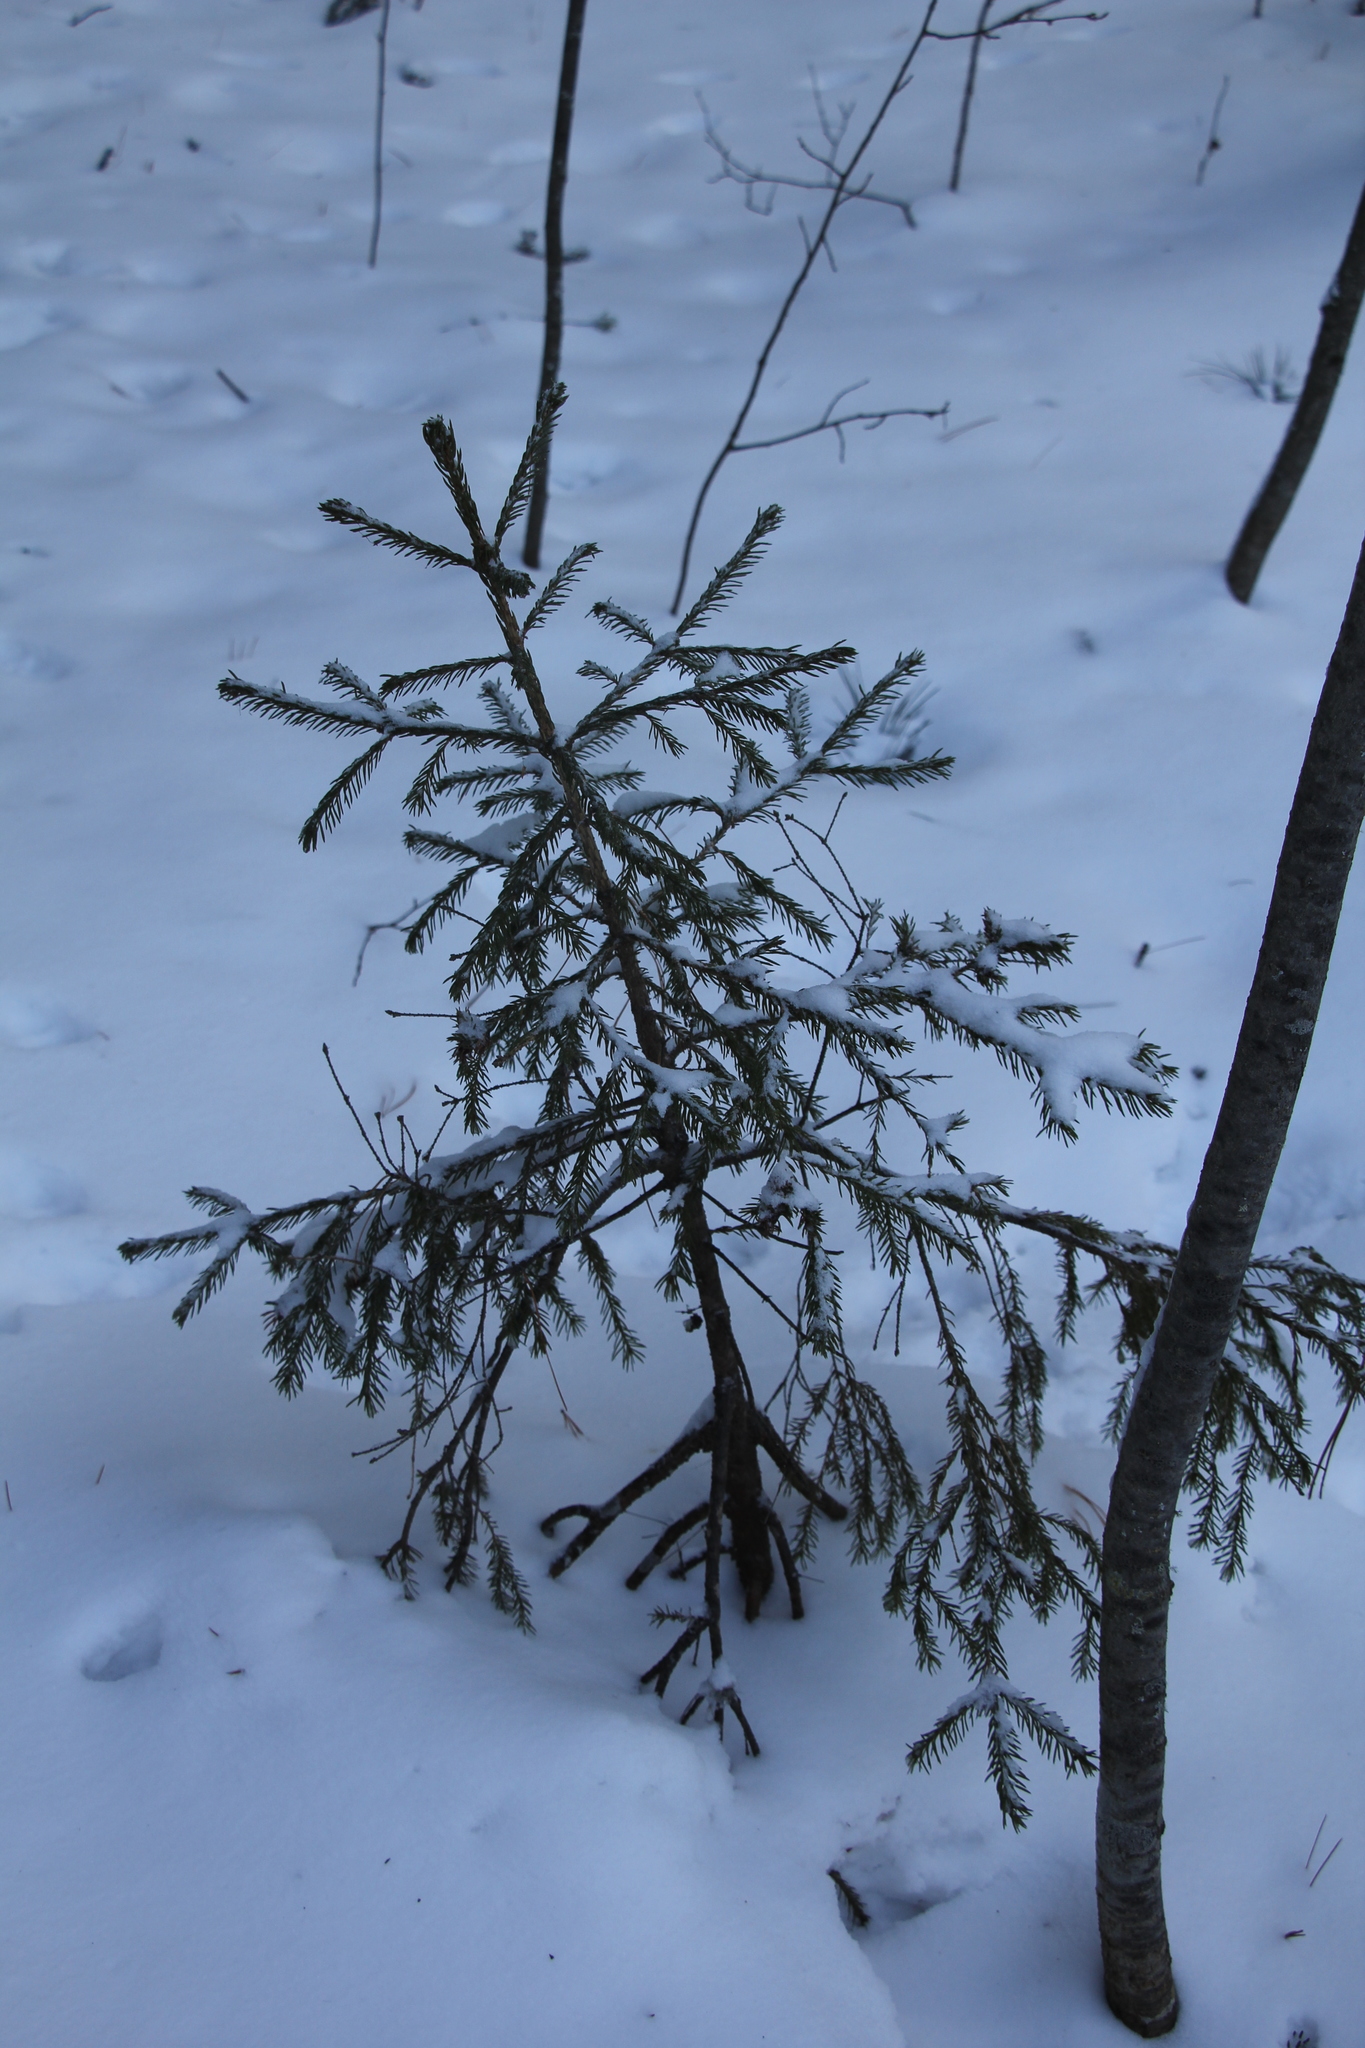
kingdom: Plantae
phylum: Tracheophyta
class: Pinopsida
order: Pinales
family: Pinaceae
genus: Picea
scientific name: Picea obovata
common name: Siberian spruce
